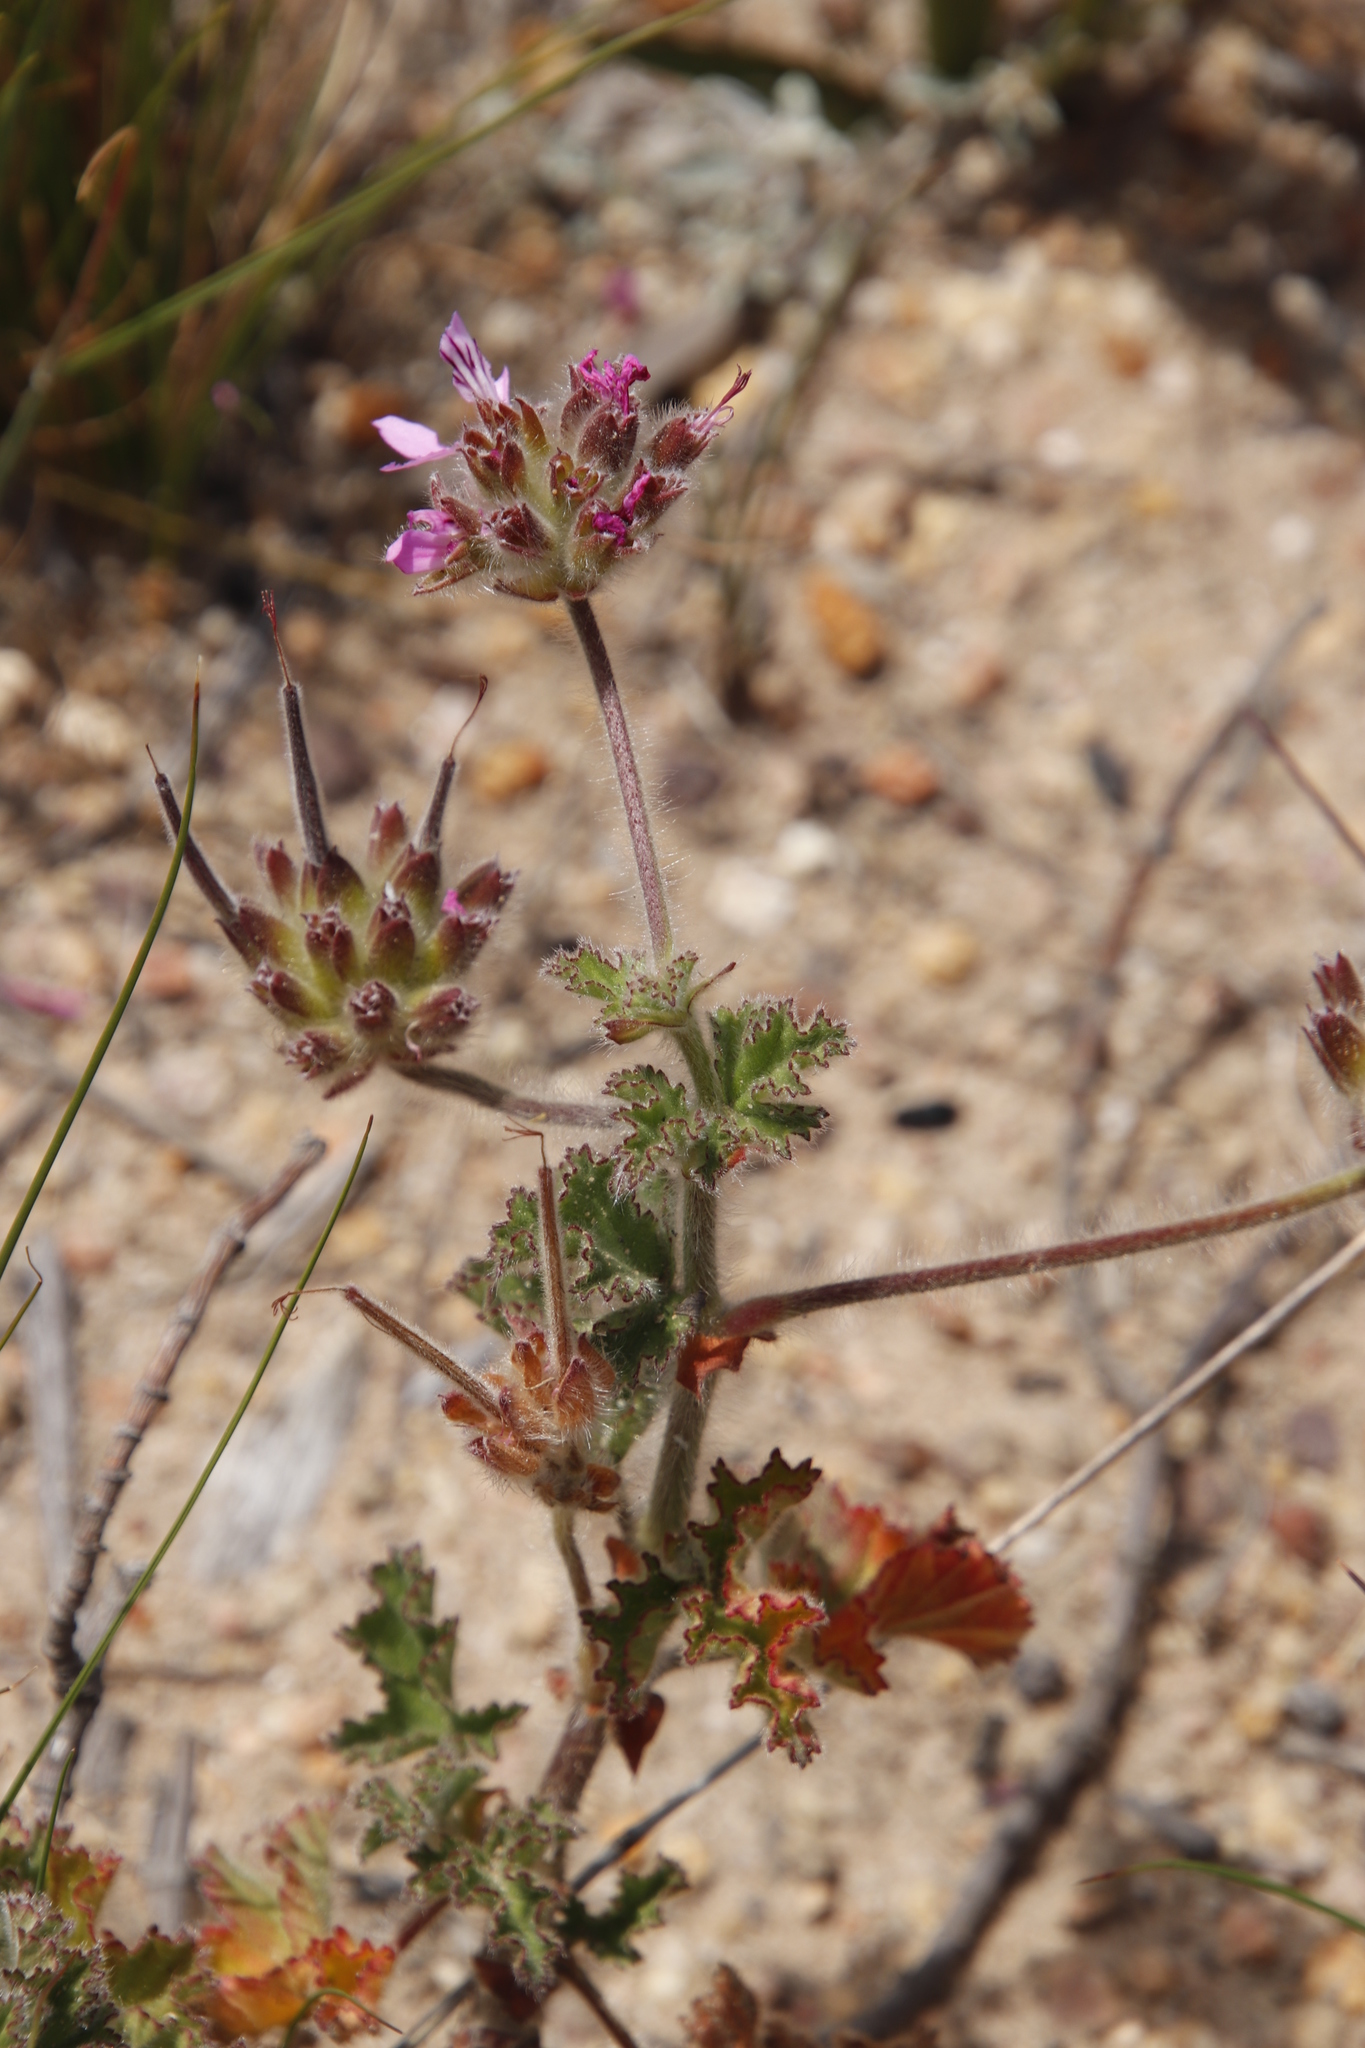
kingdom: Plantae
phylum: Tracheophyta
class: Magnoliopsida
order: Geraniales
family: Geraniaceae
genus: Pelargonium
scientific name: Pelargonium capitatum
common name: Rose scented geranium
